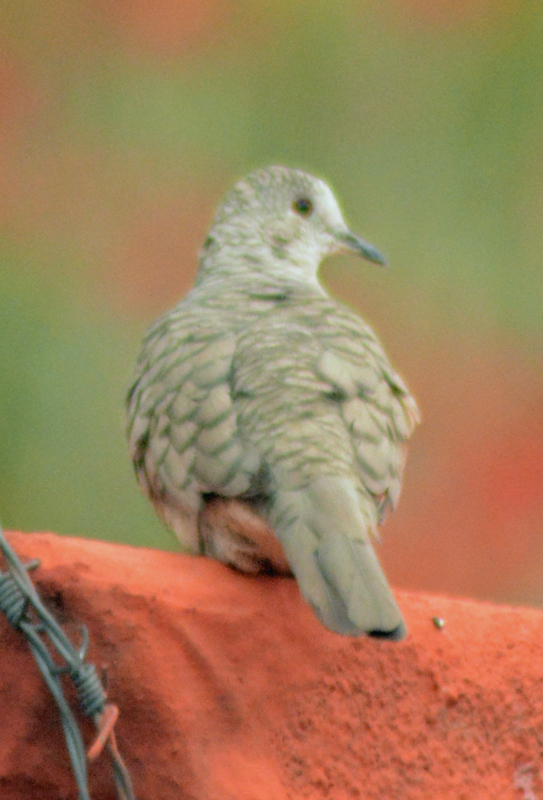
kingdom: Animalia
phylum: Chordata
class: Aves
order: Columbiformes
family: Columbidae
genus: Columbina
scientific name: Columbina inca
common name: Inca dove
